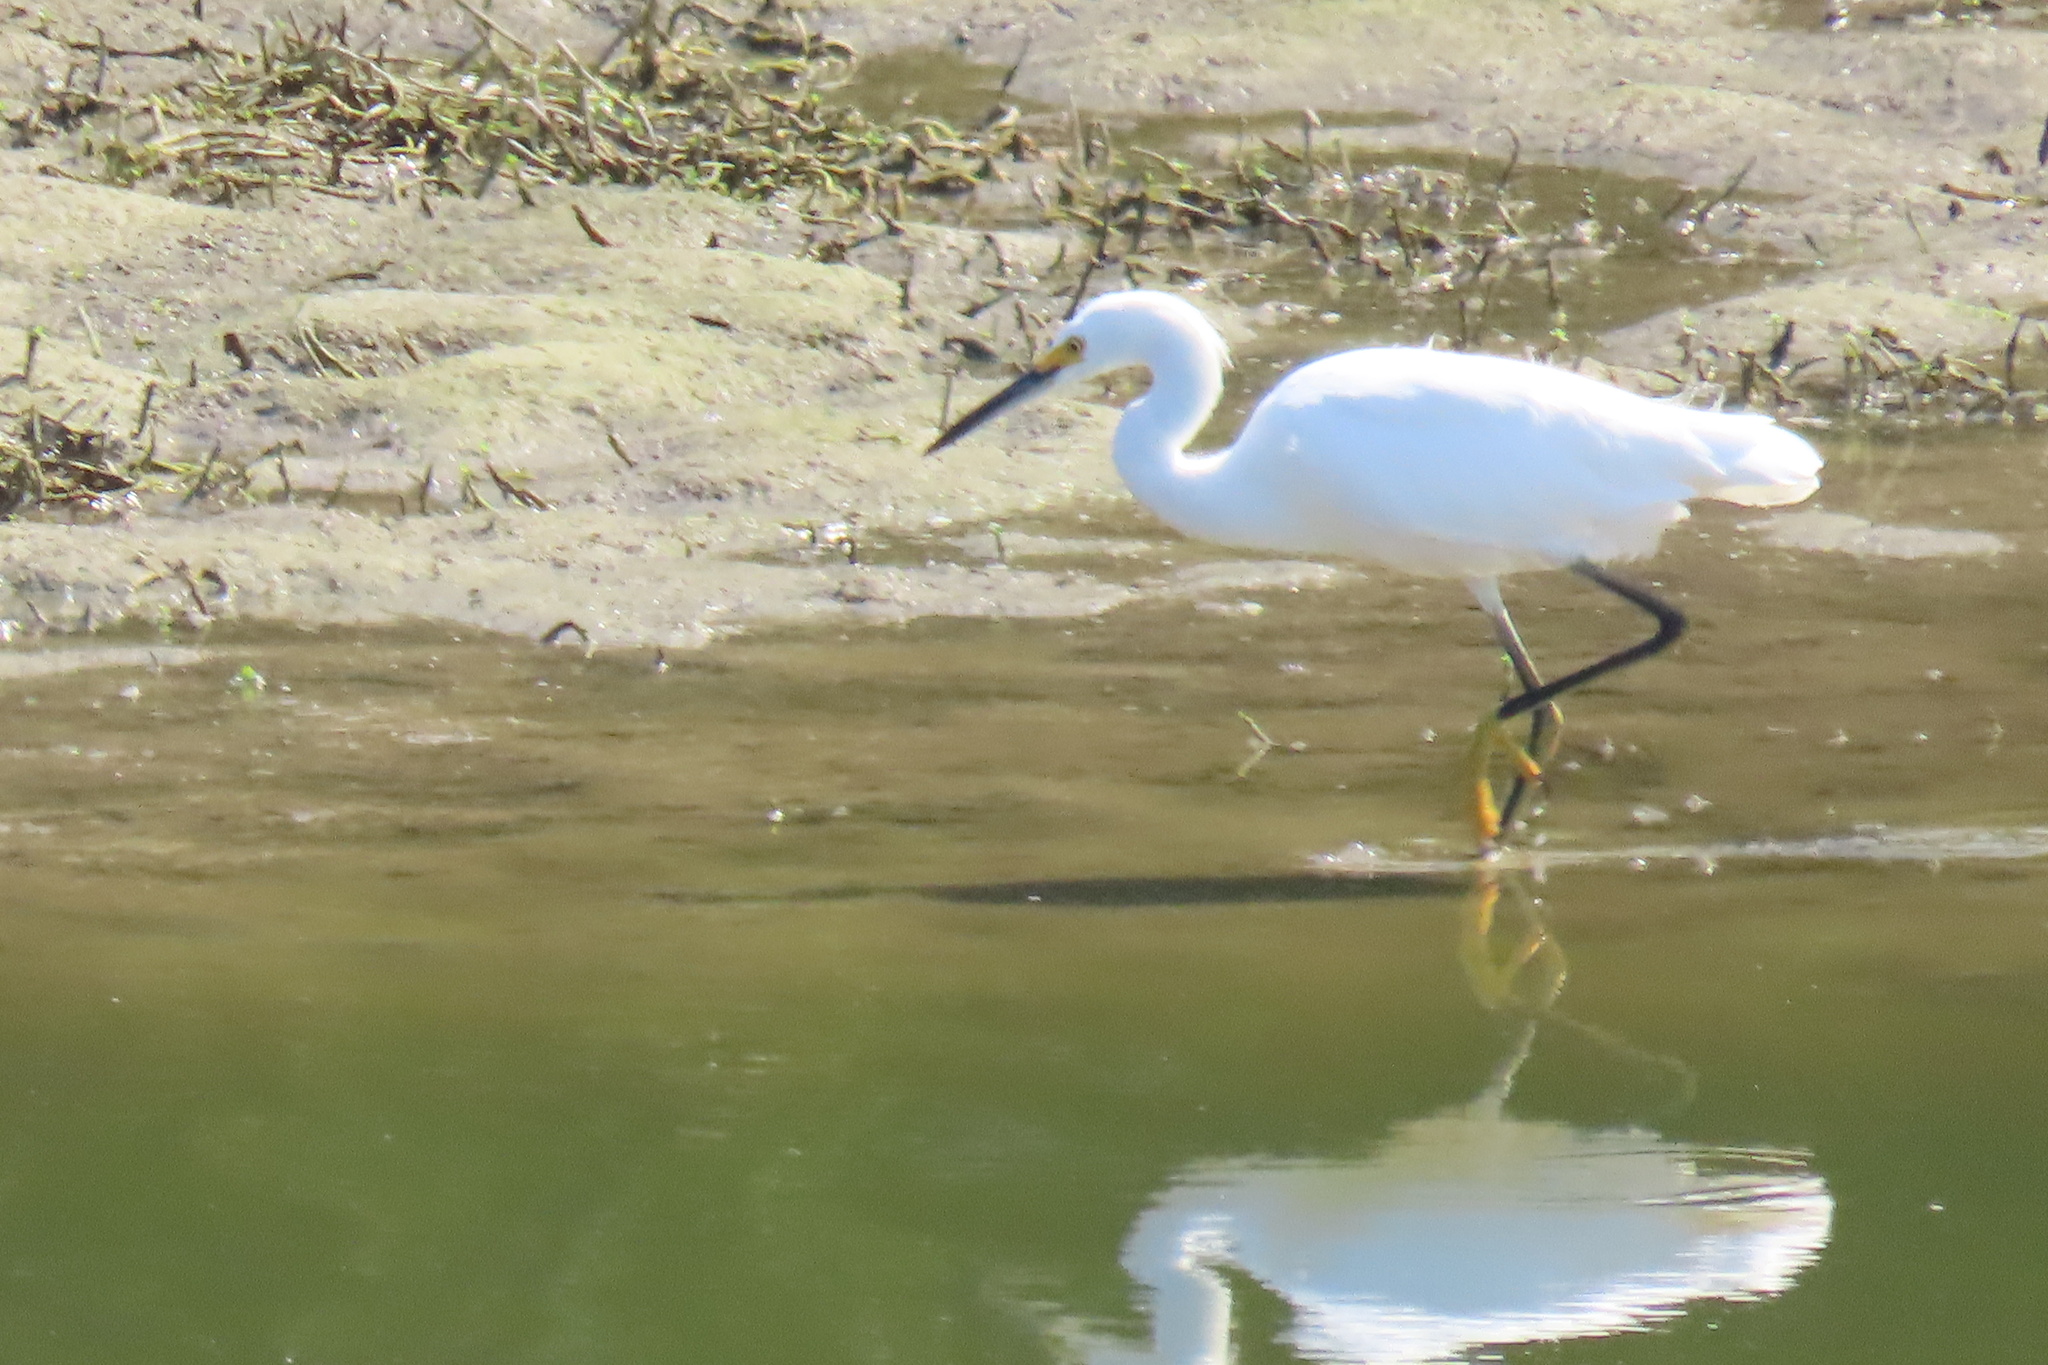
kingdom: Animalia
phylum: Chordata
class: Aves
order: Pelecaniformes
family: Ardeidae
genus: Egretta
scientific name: Egretta thula
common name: Snowy egret
